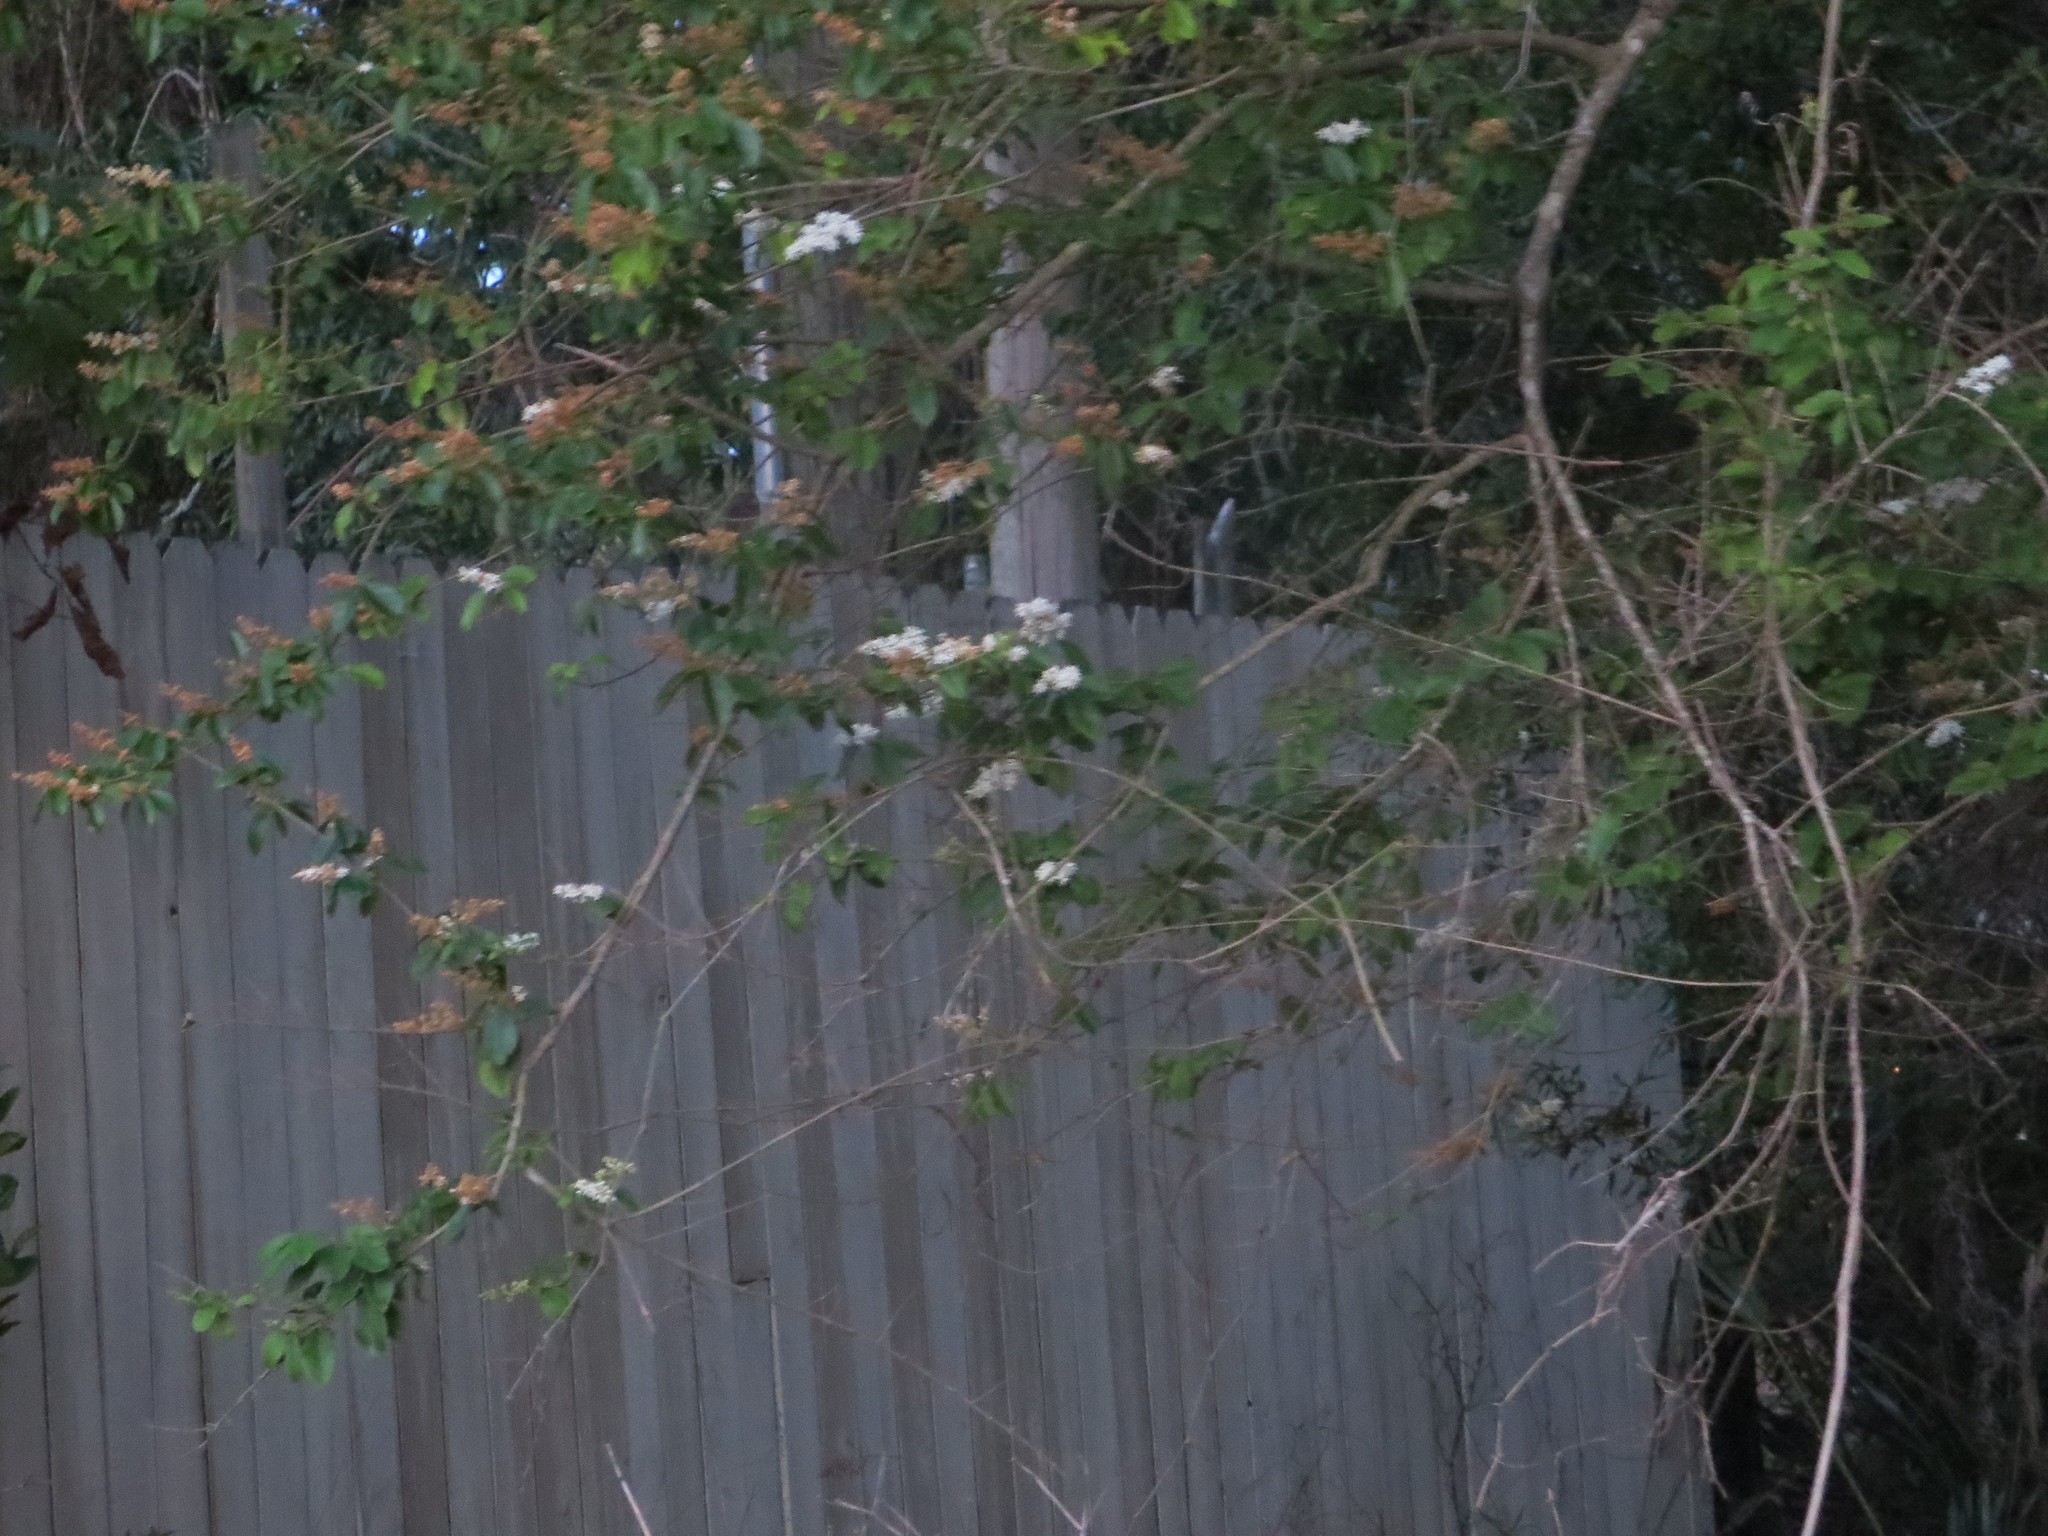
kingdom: Plantae
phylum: Tracheophyta
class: Magnoliopsida
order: Lamiales
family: Oleaceae
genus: Ligustrum
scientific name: Ligustrum sinense
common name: Chinese privet
